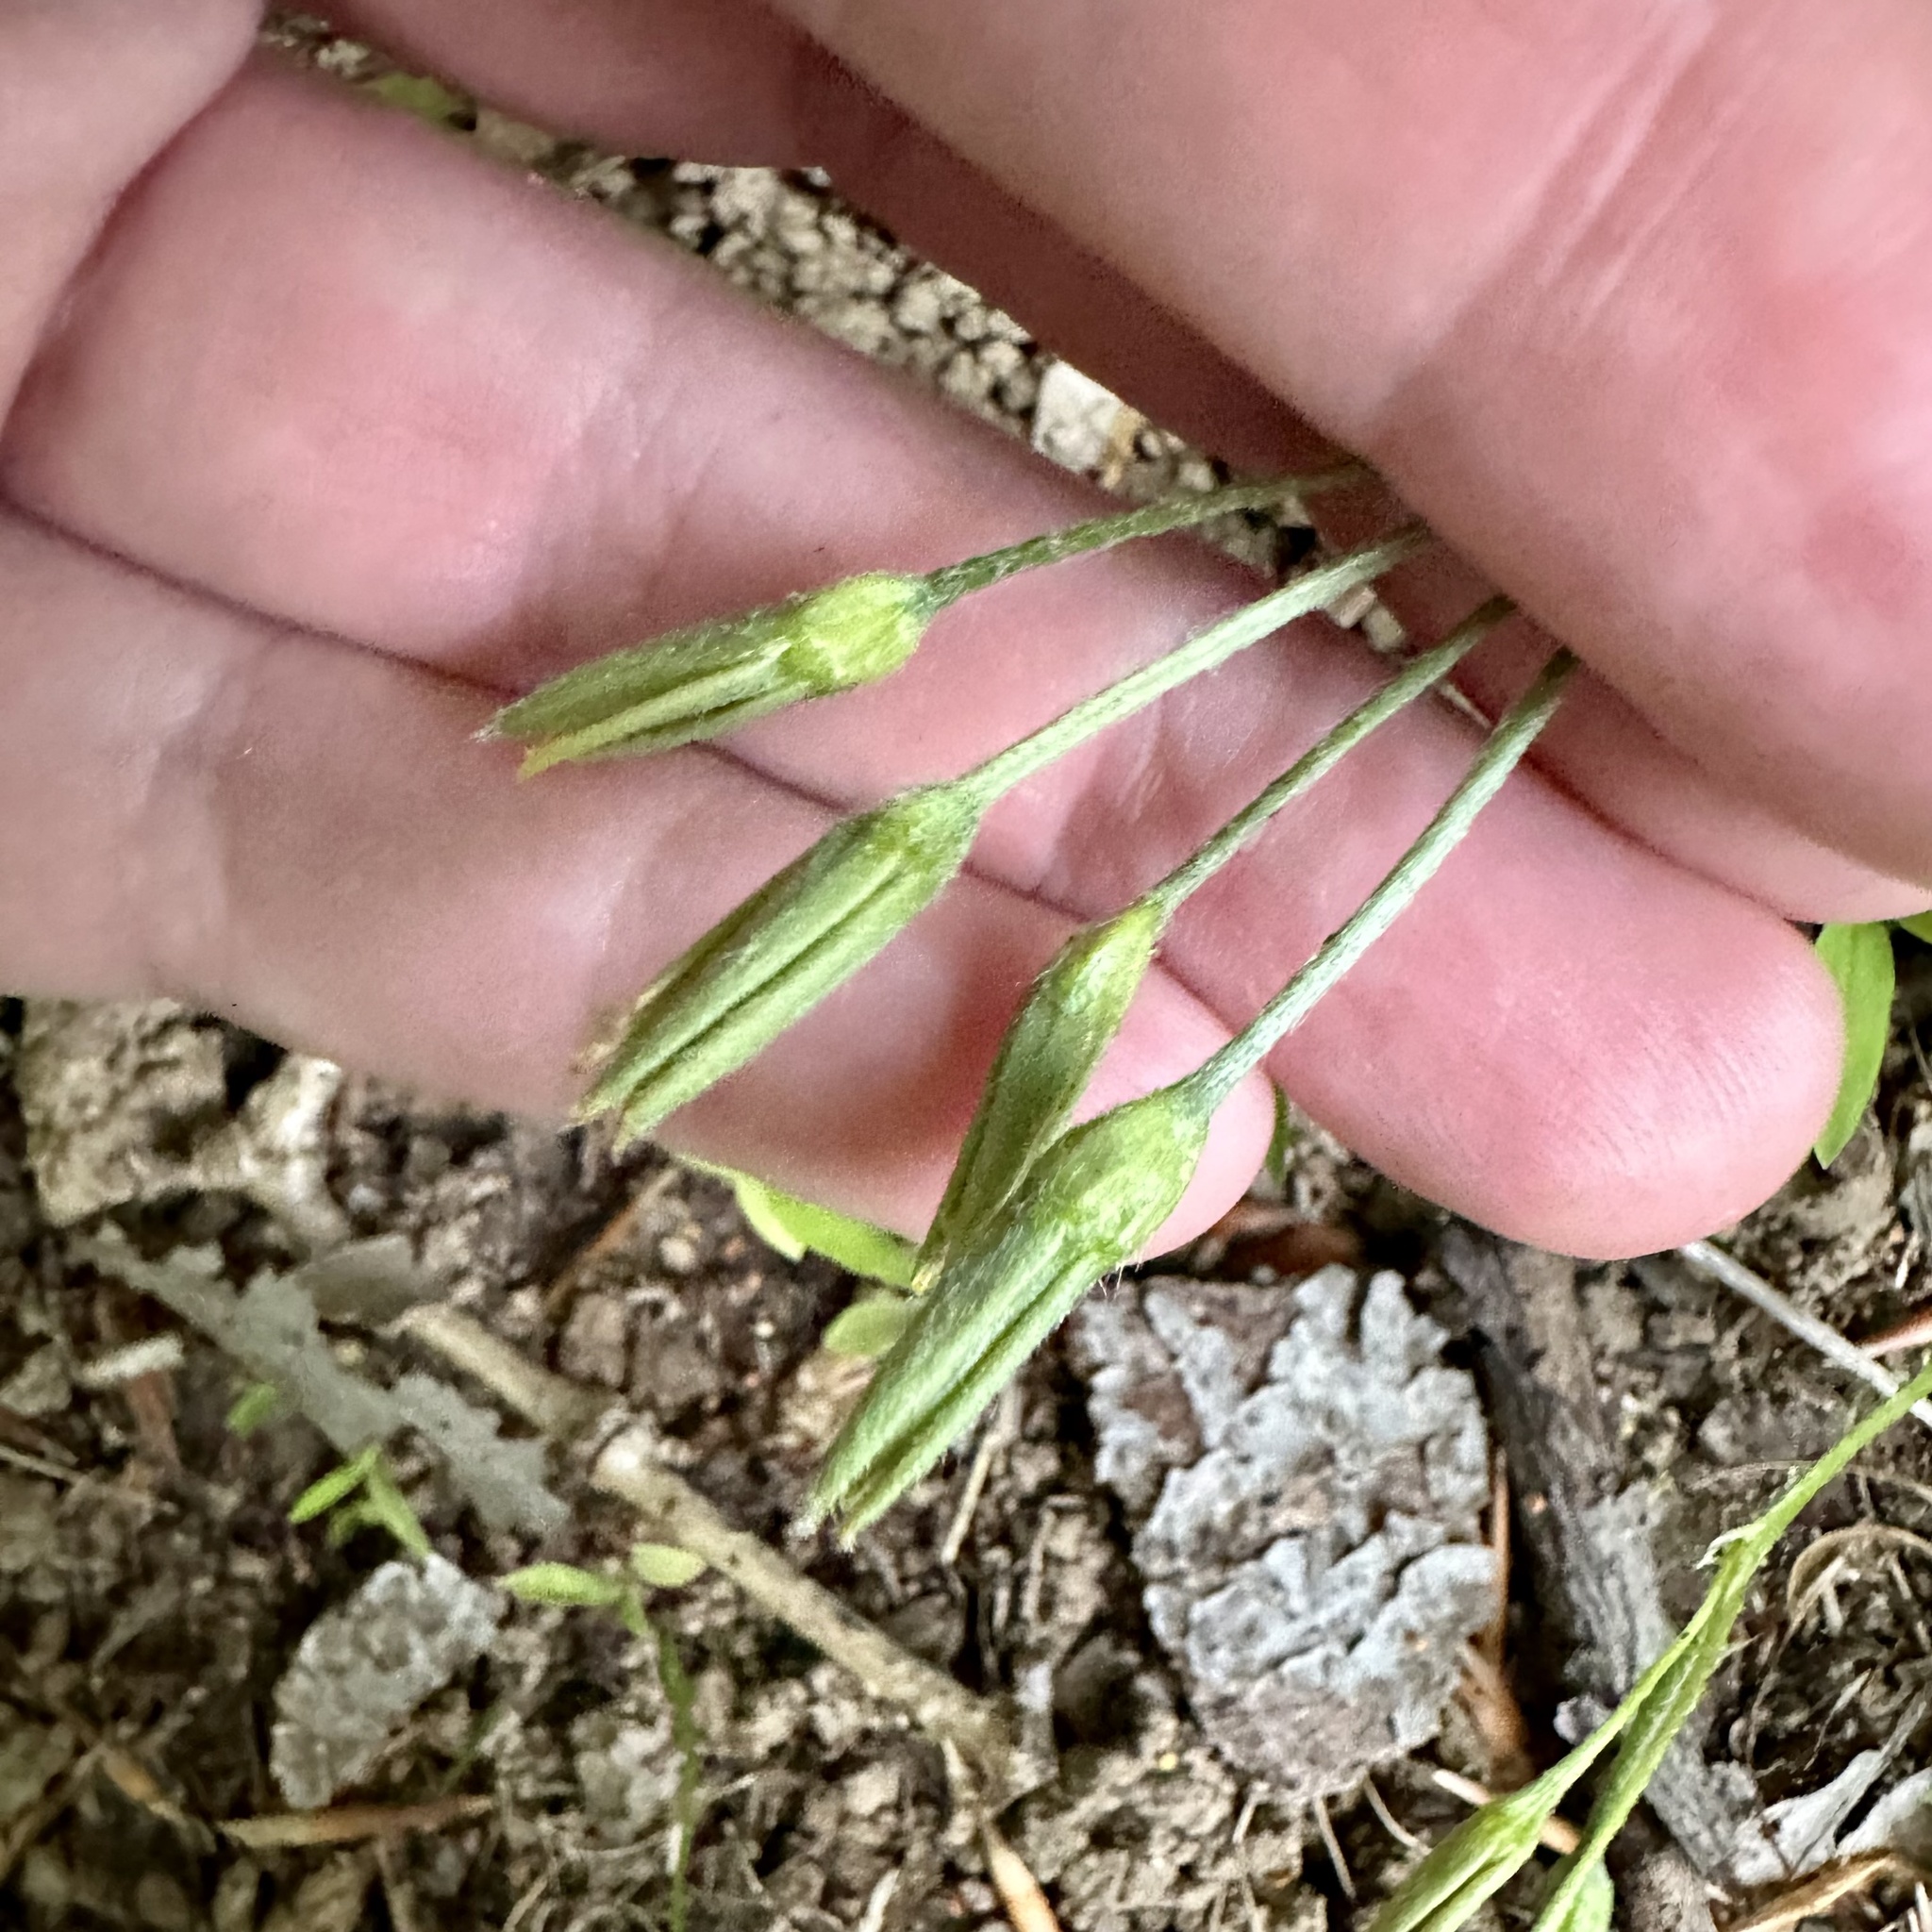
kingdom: Plantae
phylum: Tracheophyta
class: Liliopsida
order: Asparagales
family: Hypoxidaceae
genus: Hypoxis
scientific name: Hypoxis hirsuta
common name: Common goldstar
